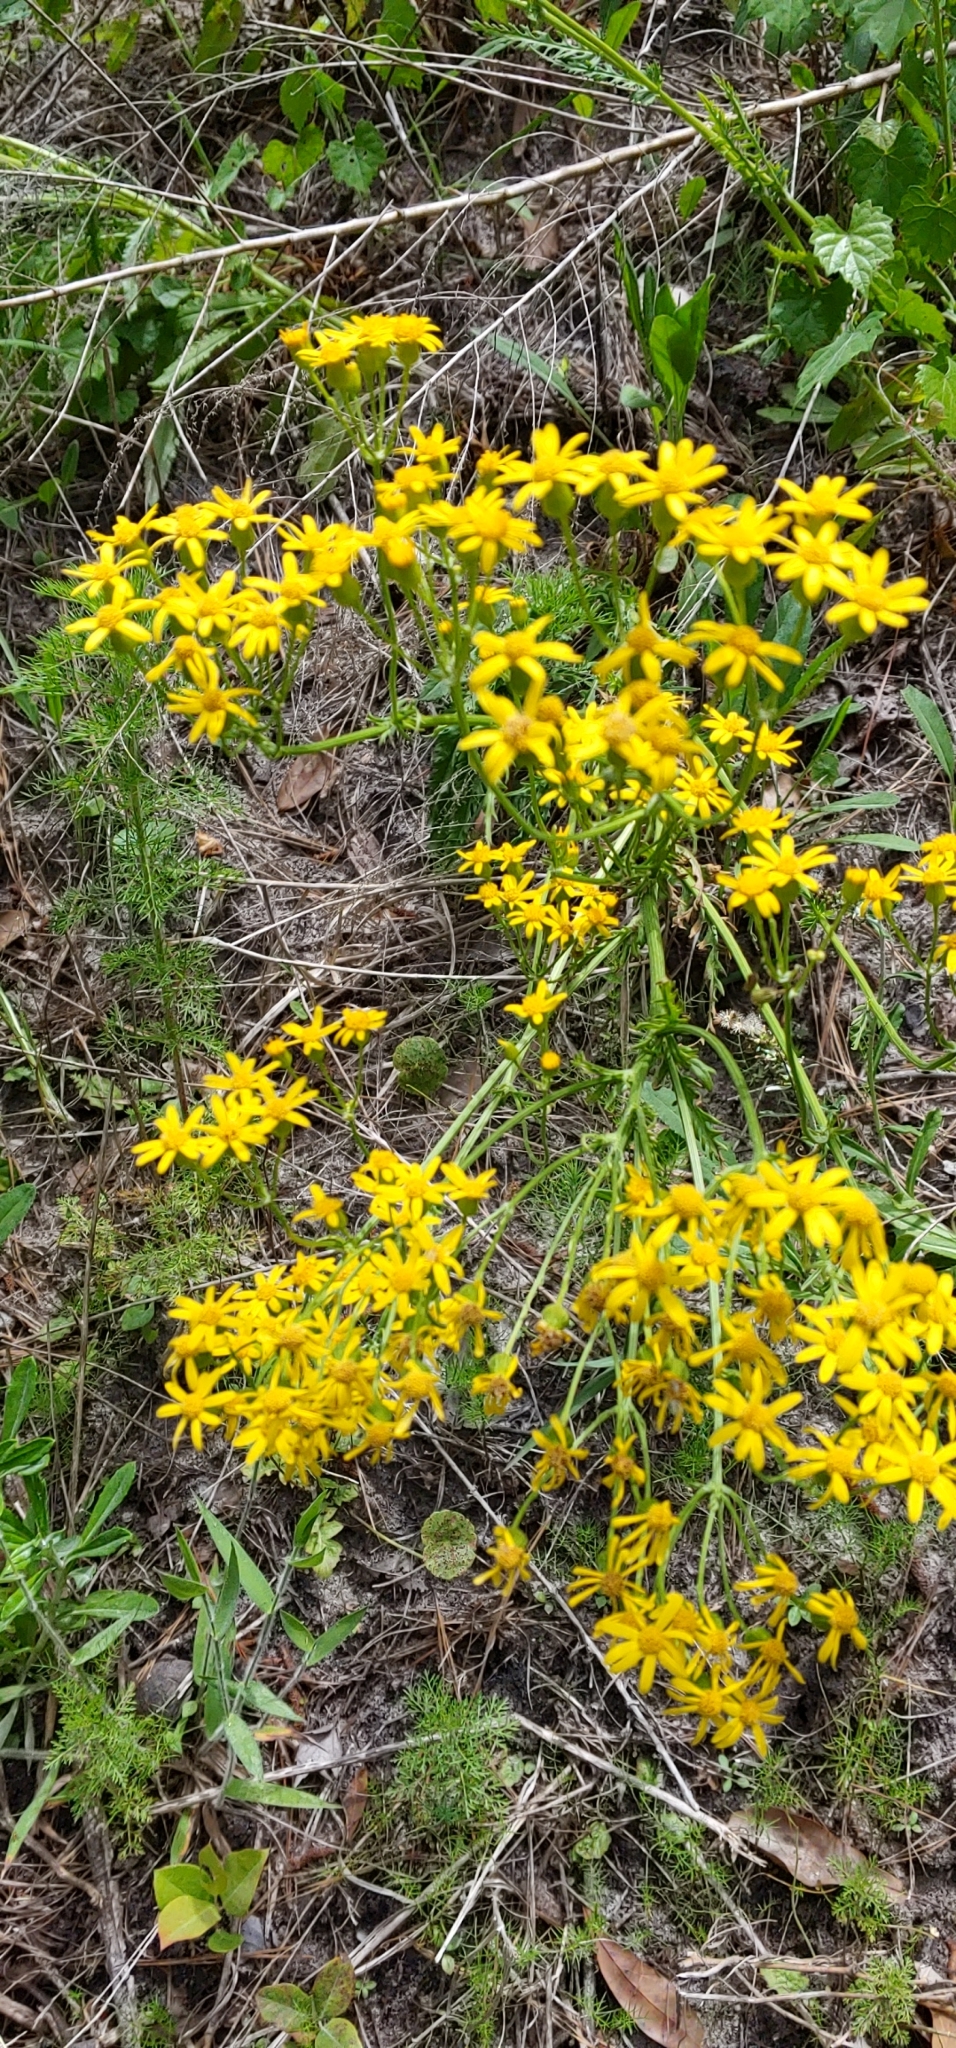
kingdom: Plantae
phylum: Tracheophyta
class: Magnoliopsida
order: Asterales
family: Asteraceae
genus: Packera
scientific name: Packera anonyma
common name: Small ragwort
